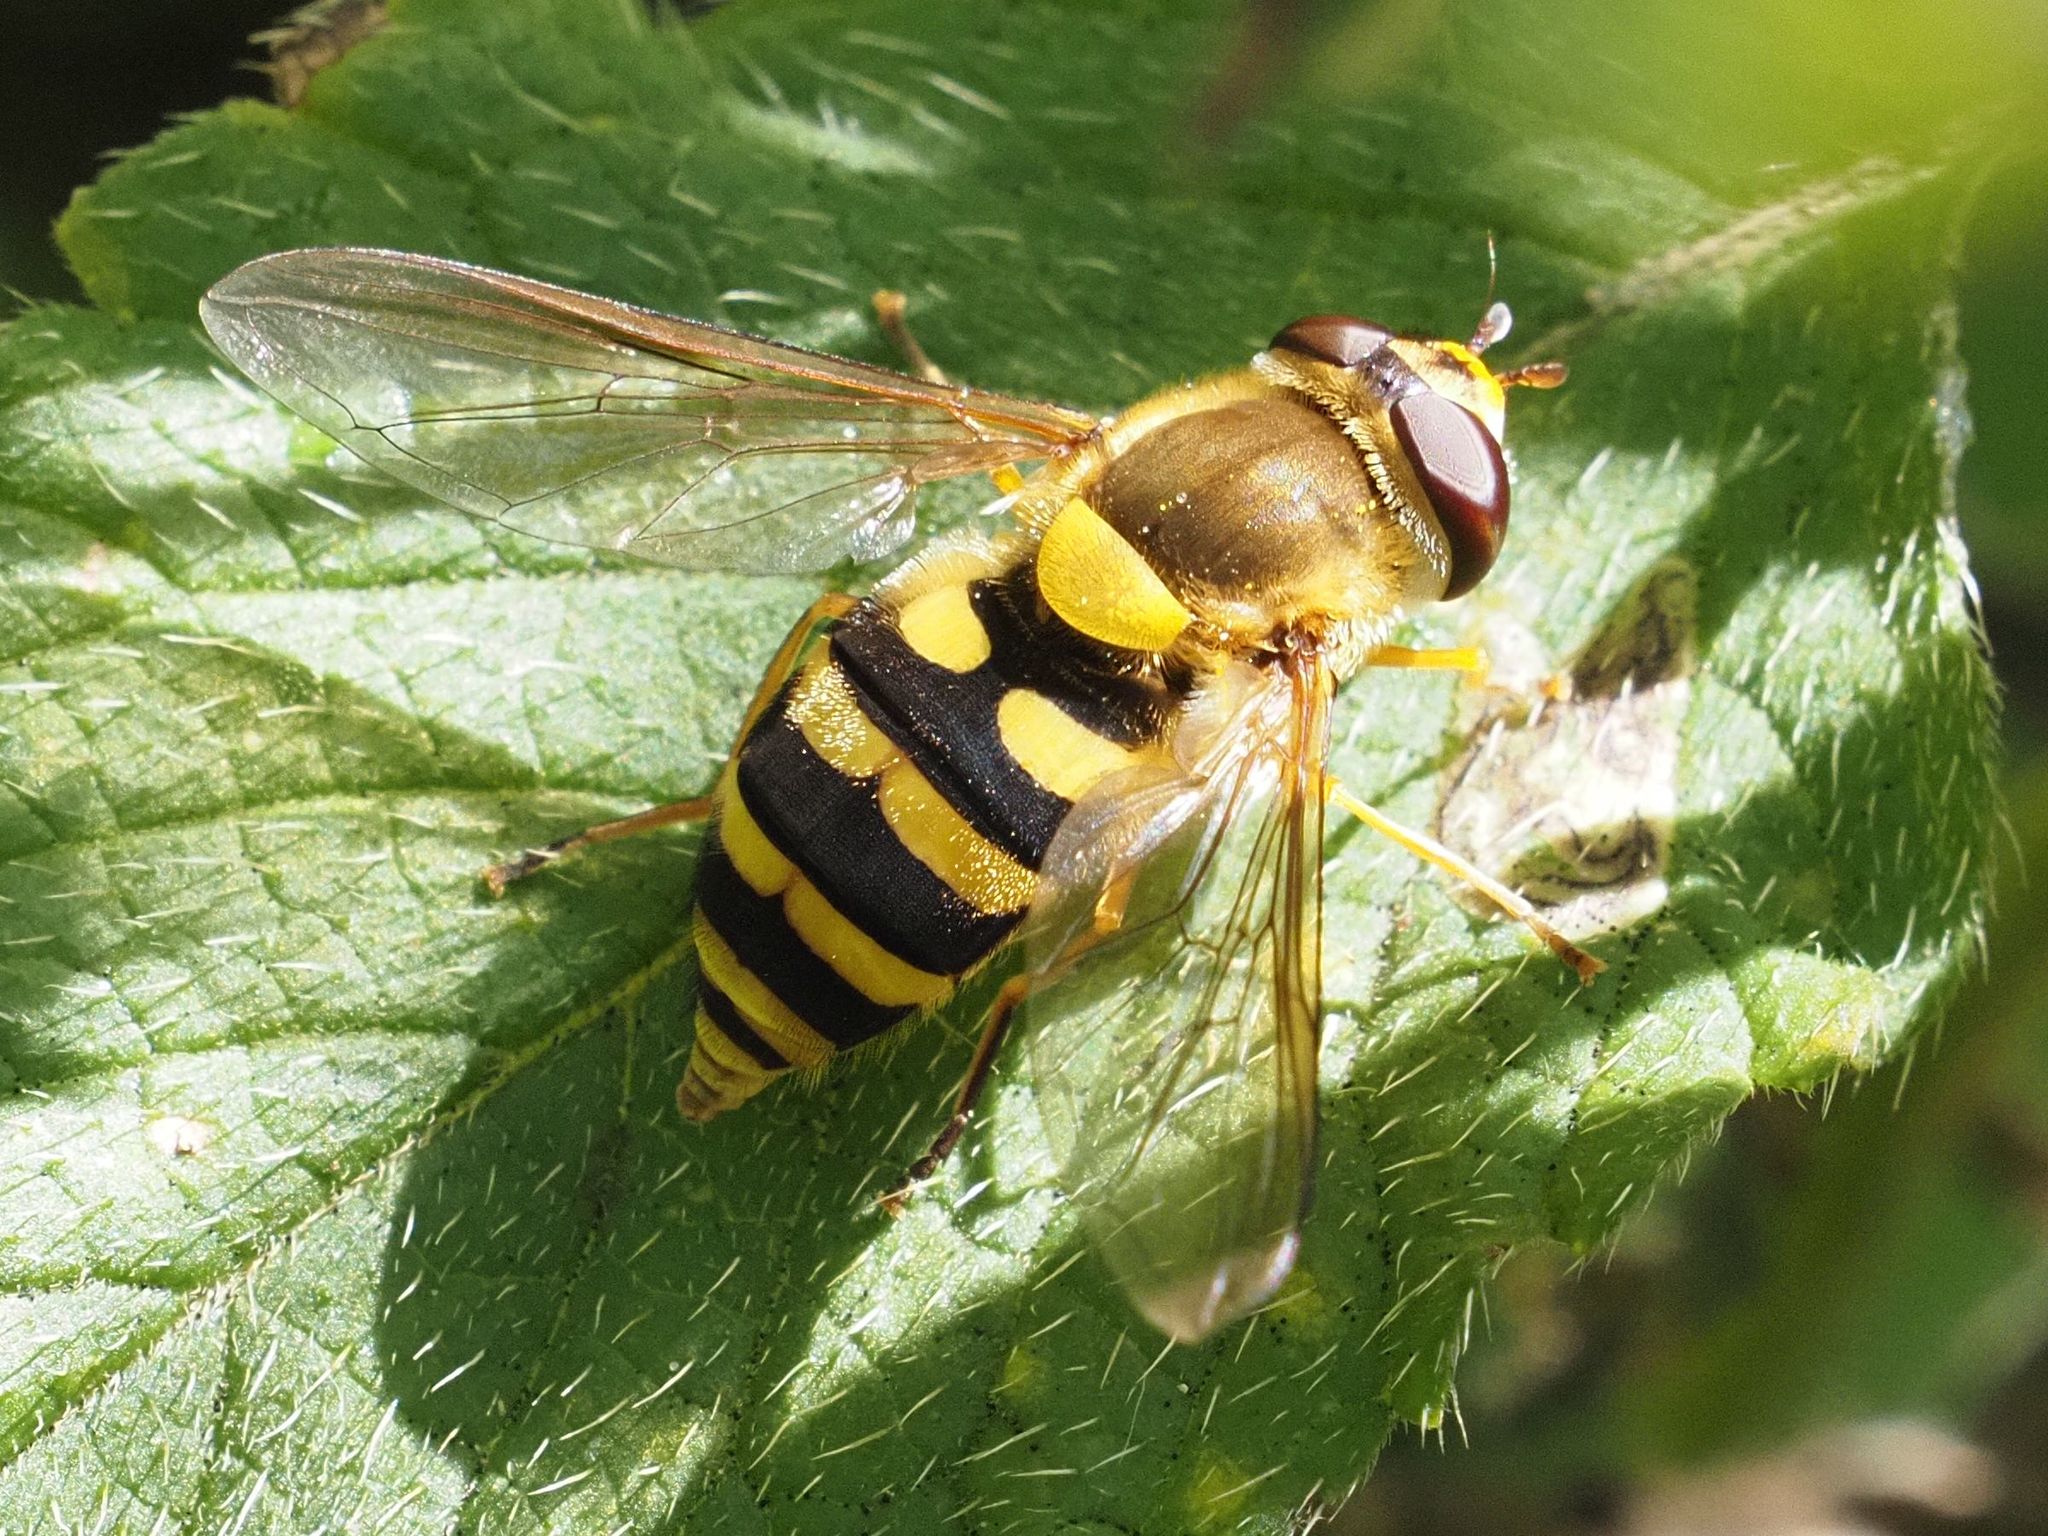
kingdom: Animalia
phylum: Arthropoda
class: Insecta
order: Diptera
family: Syrphidae
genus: Syrphus
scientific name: Syrphus ribesii
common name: Common flower fly
